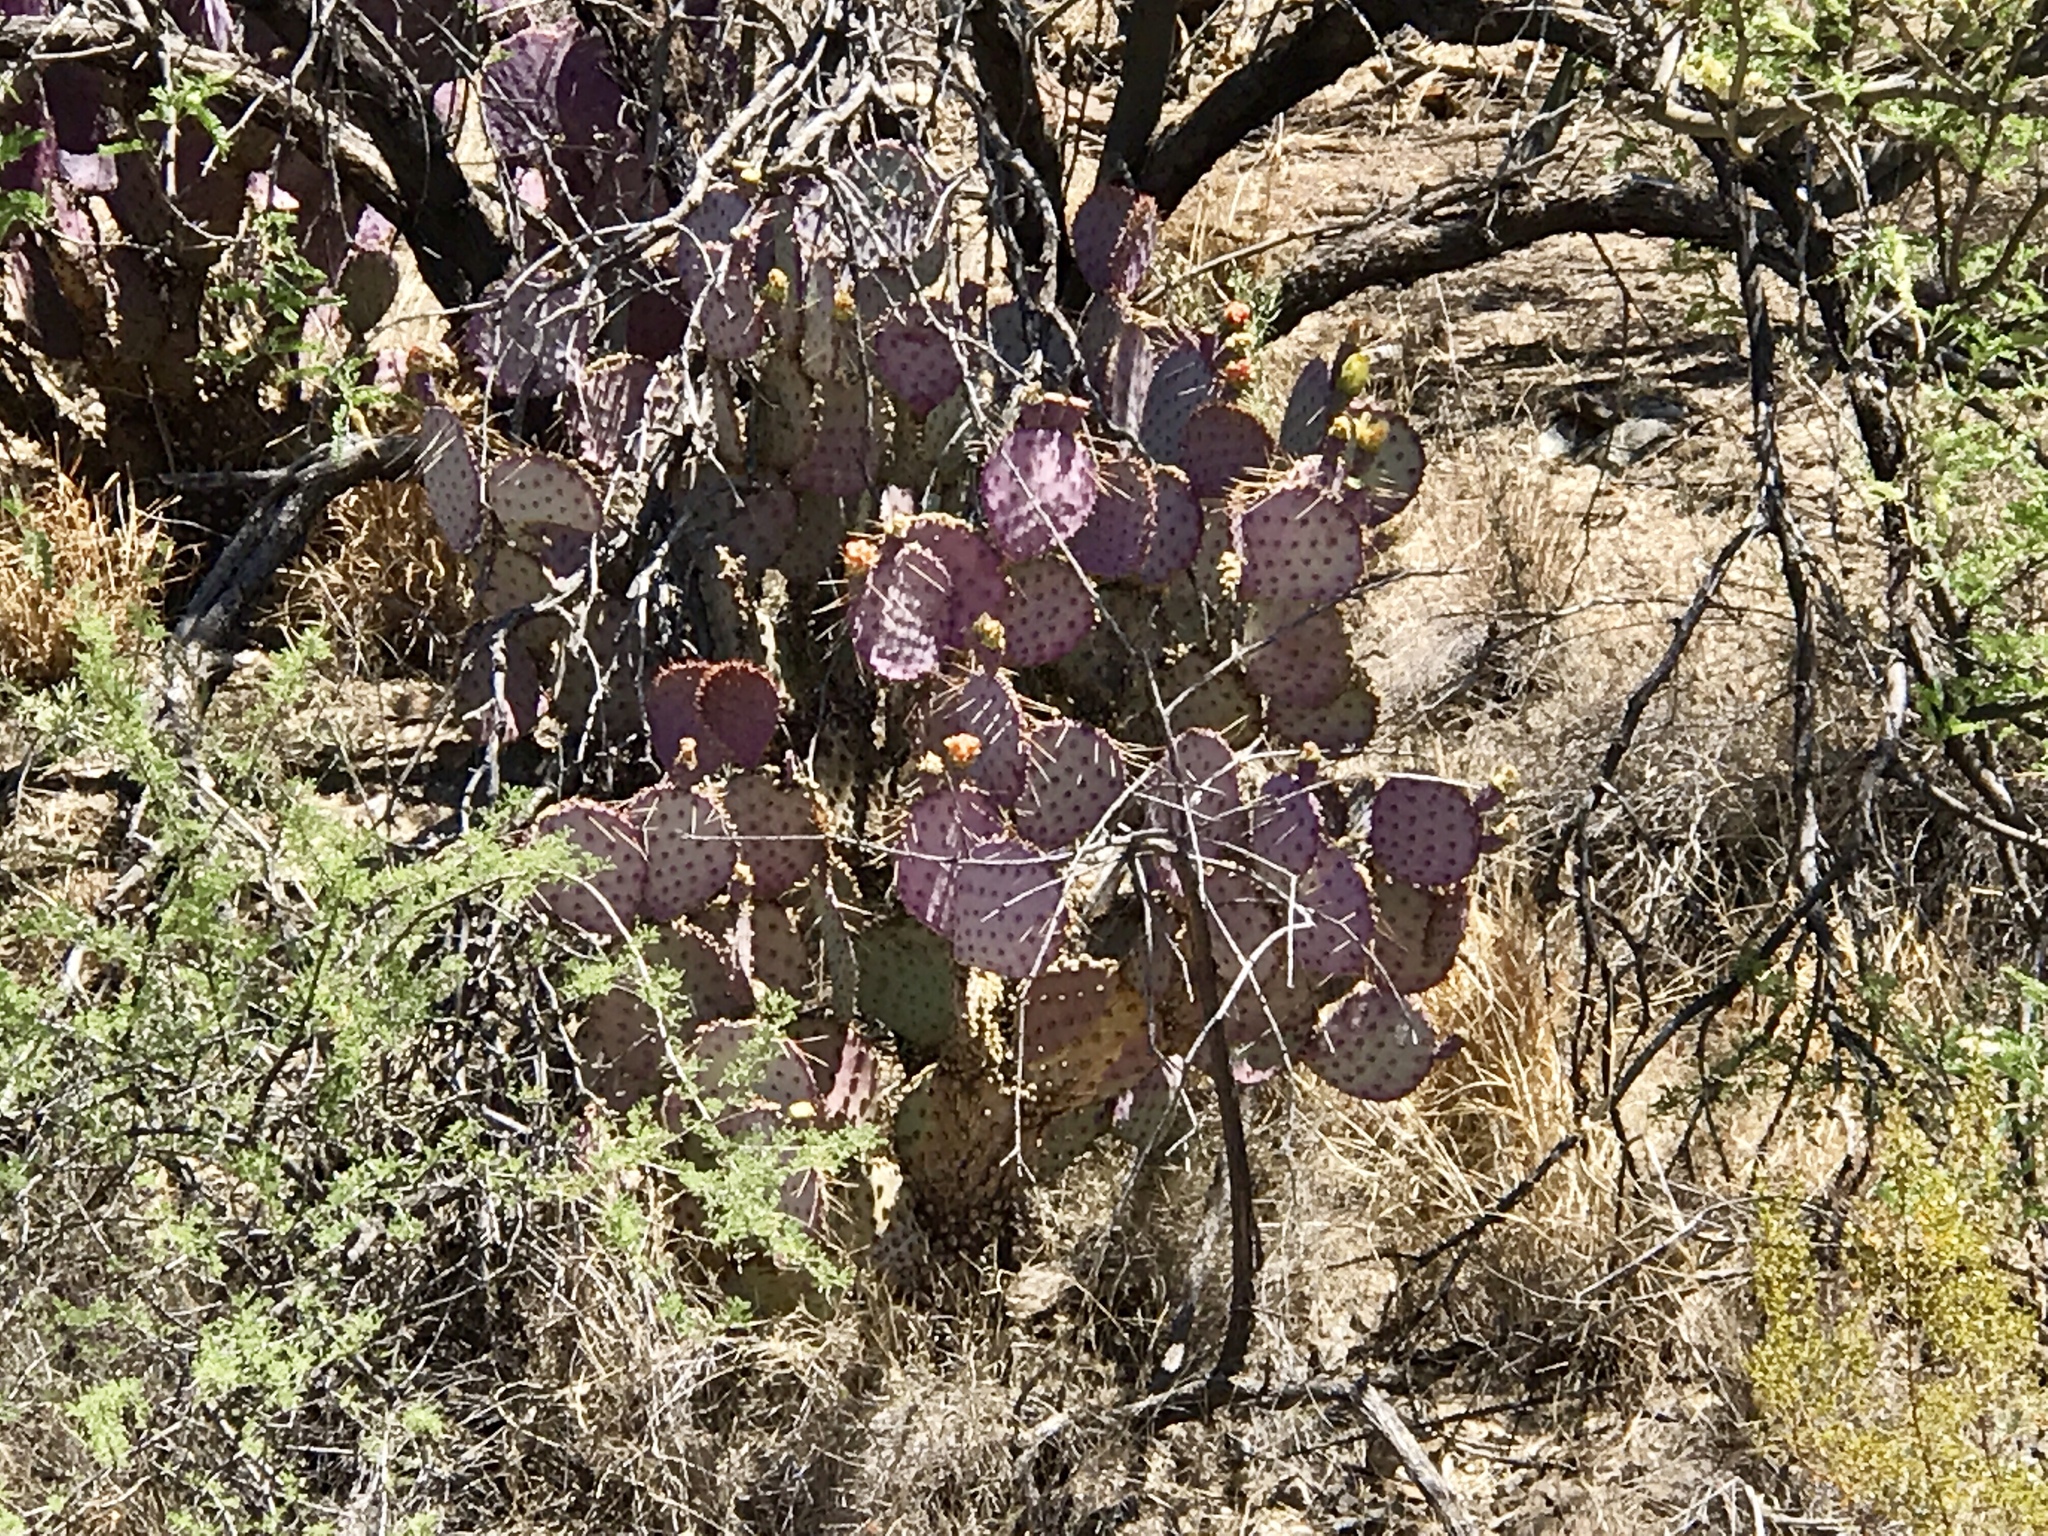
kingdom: Plantae
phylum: Tracheophyta
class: Magnoliopsida
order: Caryophyllales
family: Cactaceae
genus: Opuntia
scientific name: Opuntia gosseliniana
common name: Violet prickly-pear
